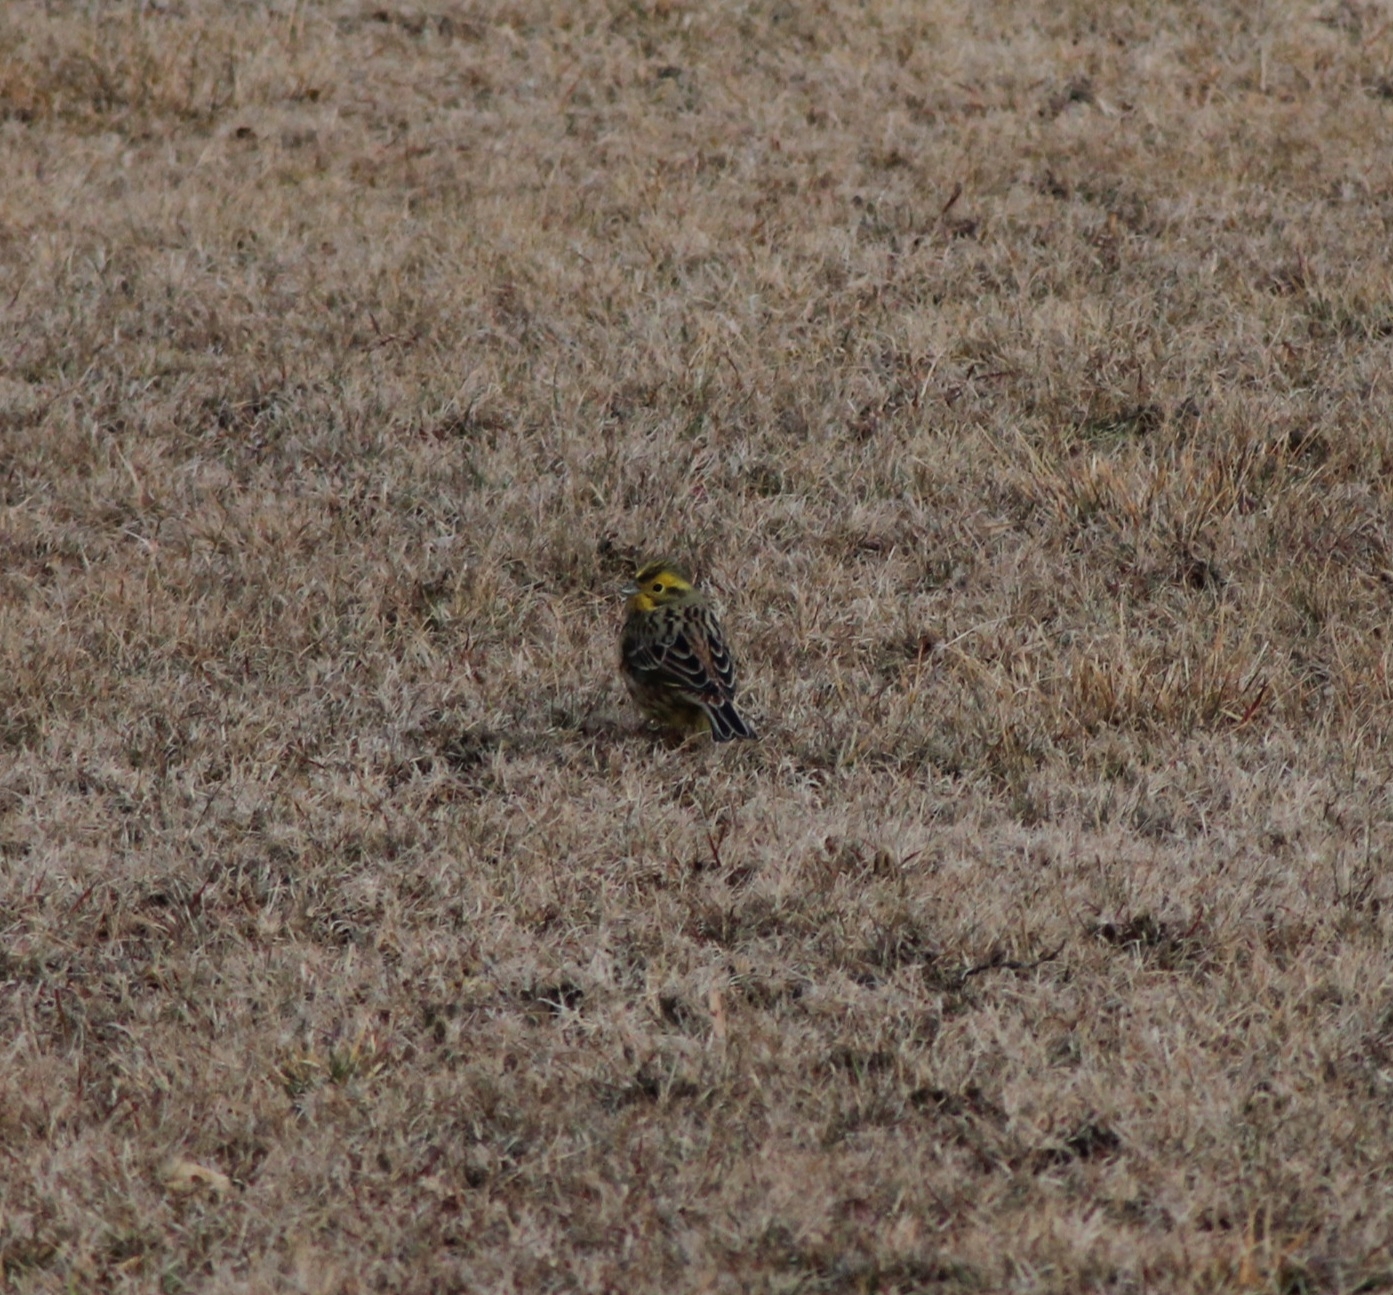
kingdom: Animalia
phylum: Chordata
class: Aves
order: Passeriformes
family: Emberizidae
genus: Emberiza
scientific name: Emberiza citrinella
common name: Yellowhammer
